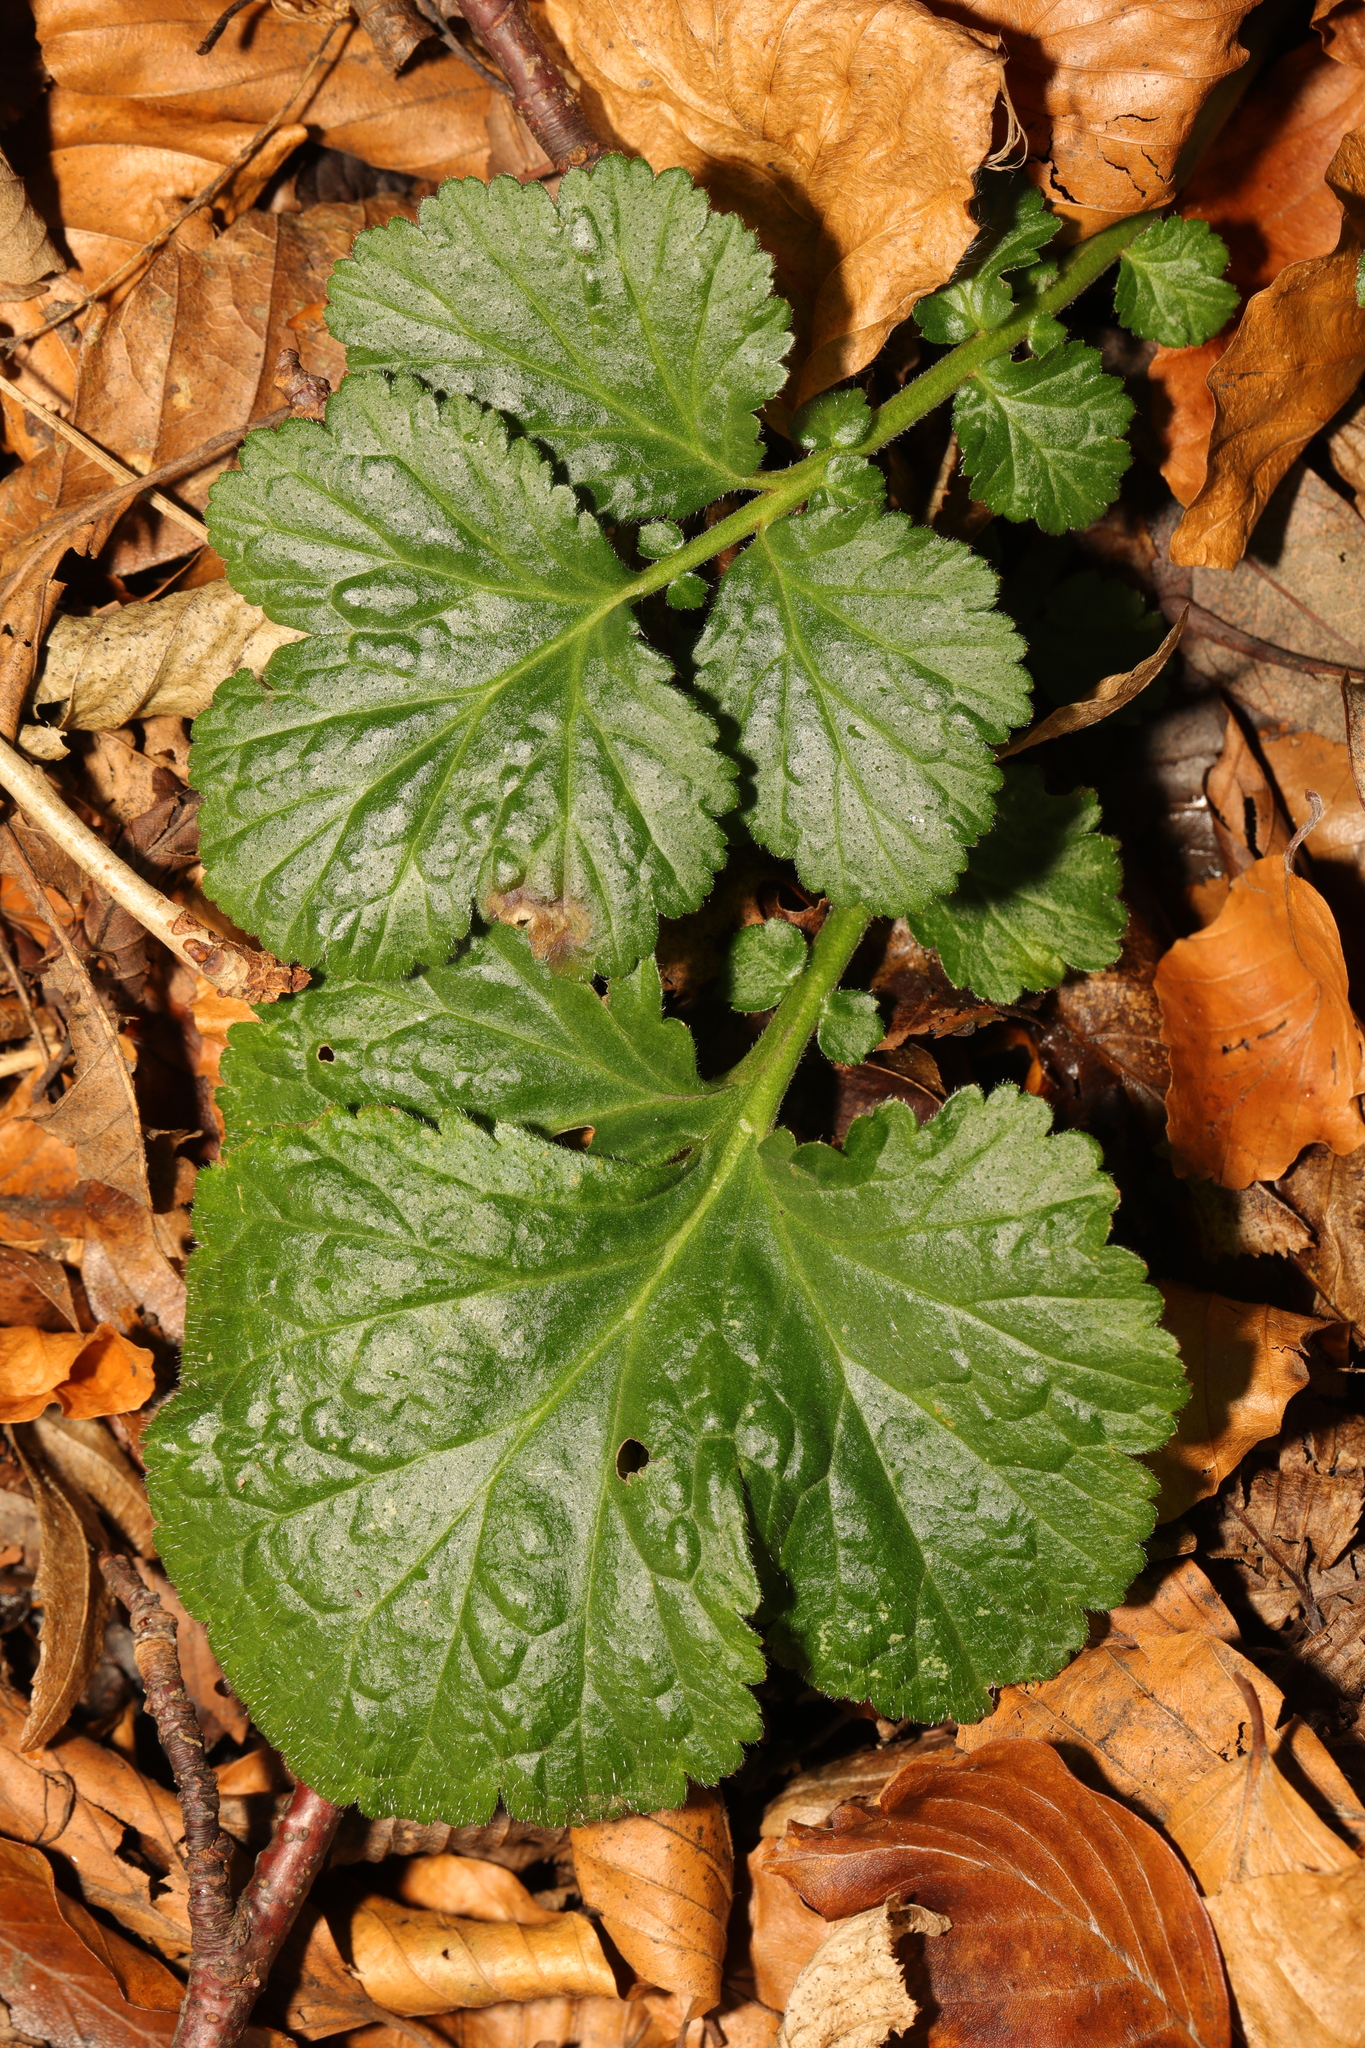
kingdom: Plantae
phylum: Tracheophyta
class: Magnoliopsida
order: Rosales
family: Rosaceae
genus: Geum
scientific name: Geum urbanum
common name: Wood avens
